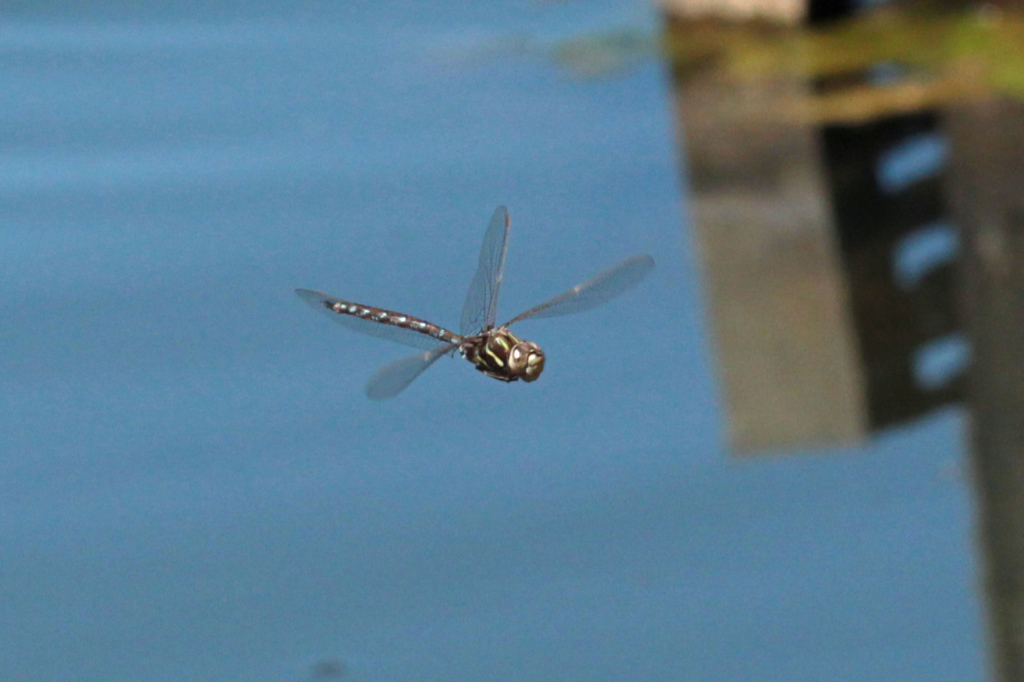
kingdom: Animalia
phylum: Arthropoda
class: Insecta
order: Odonata
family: Aeshnidae
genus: Basiaeschna
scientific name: Basiaeschna janata
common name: Springtime darner
